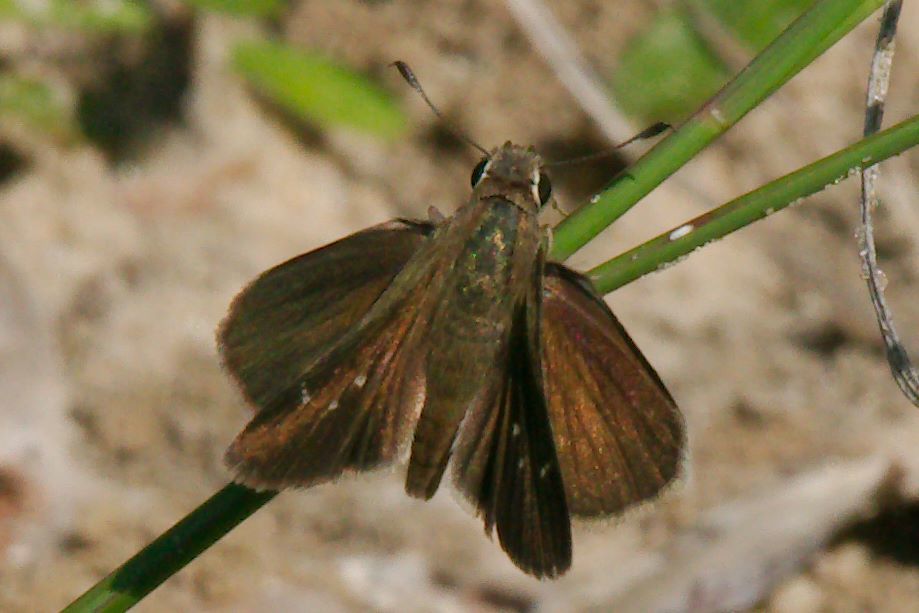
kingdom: Animalia
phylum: Arthropoda
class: Insecta
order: Lepidoptera
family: Hesperiidae
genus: Lerodea
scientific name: Lerodea eufala
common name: Eufala skipper
